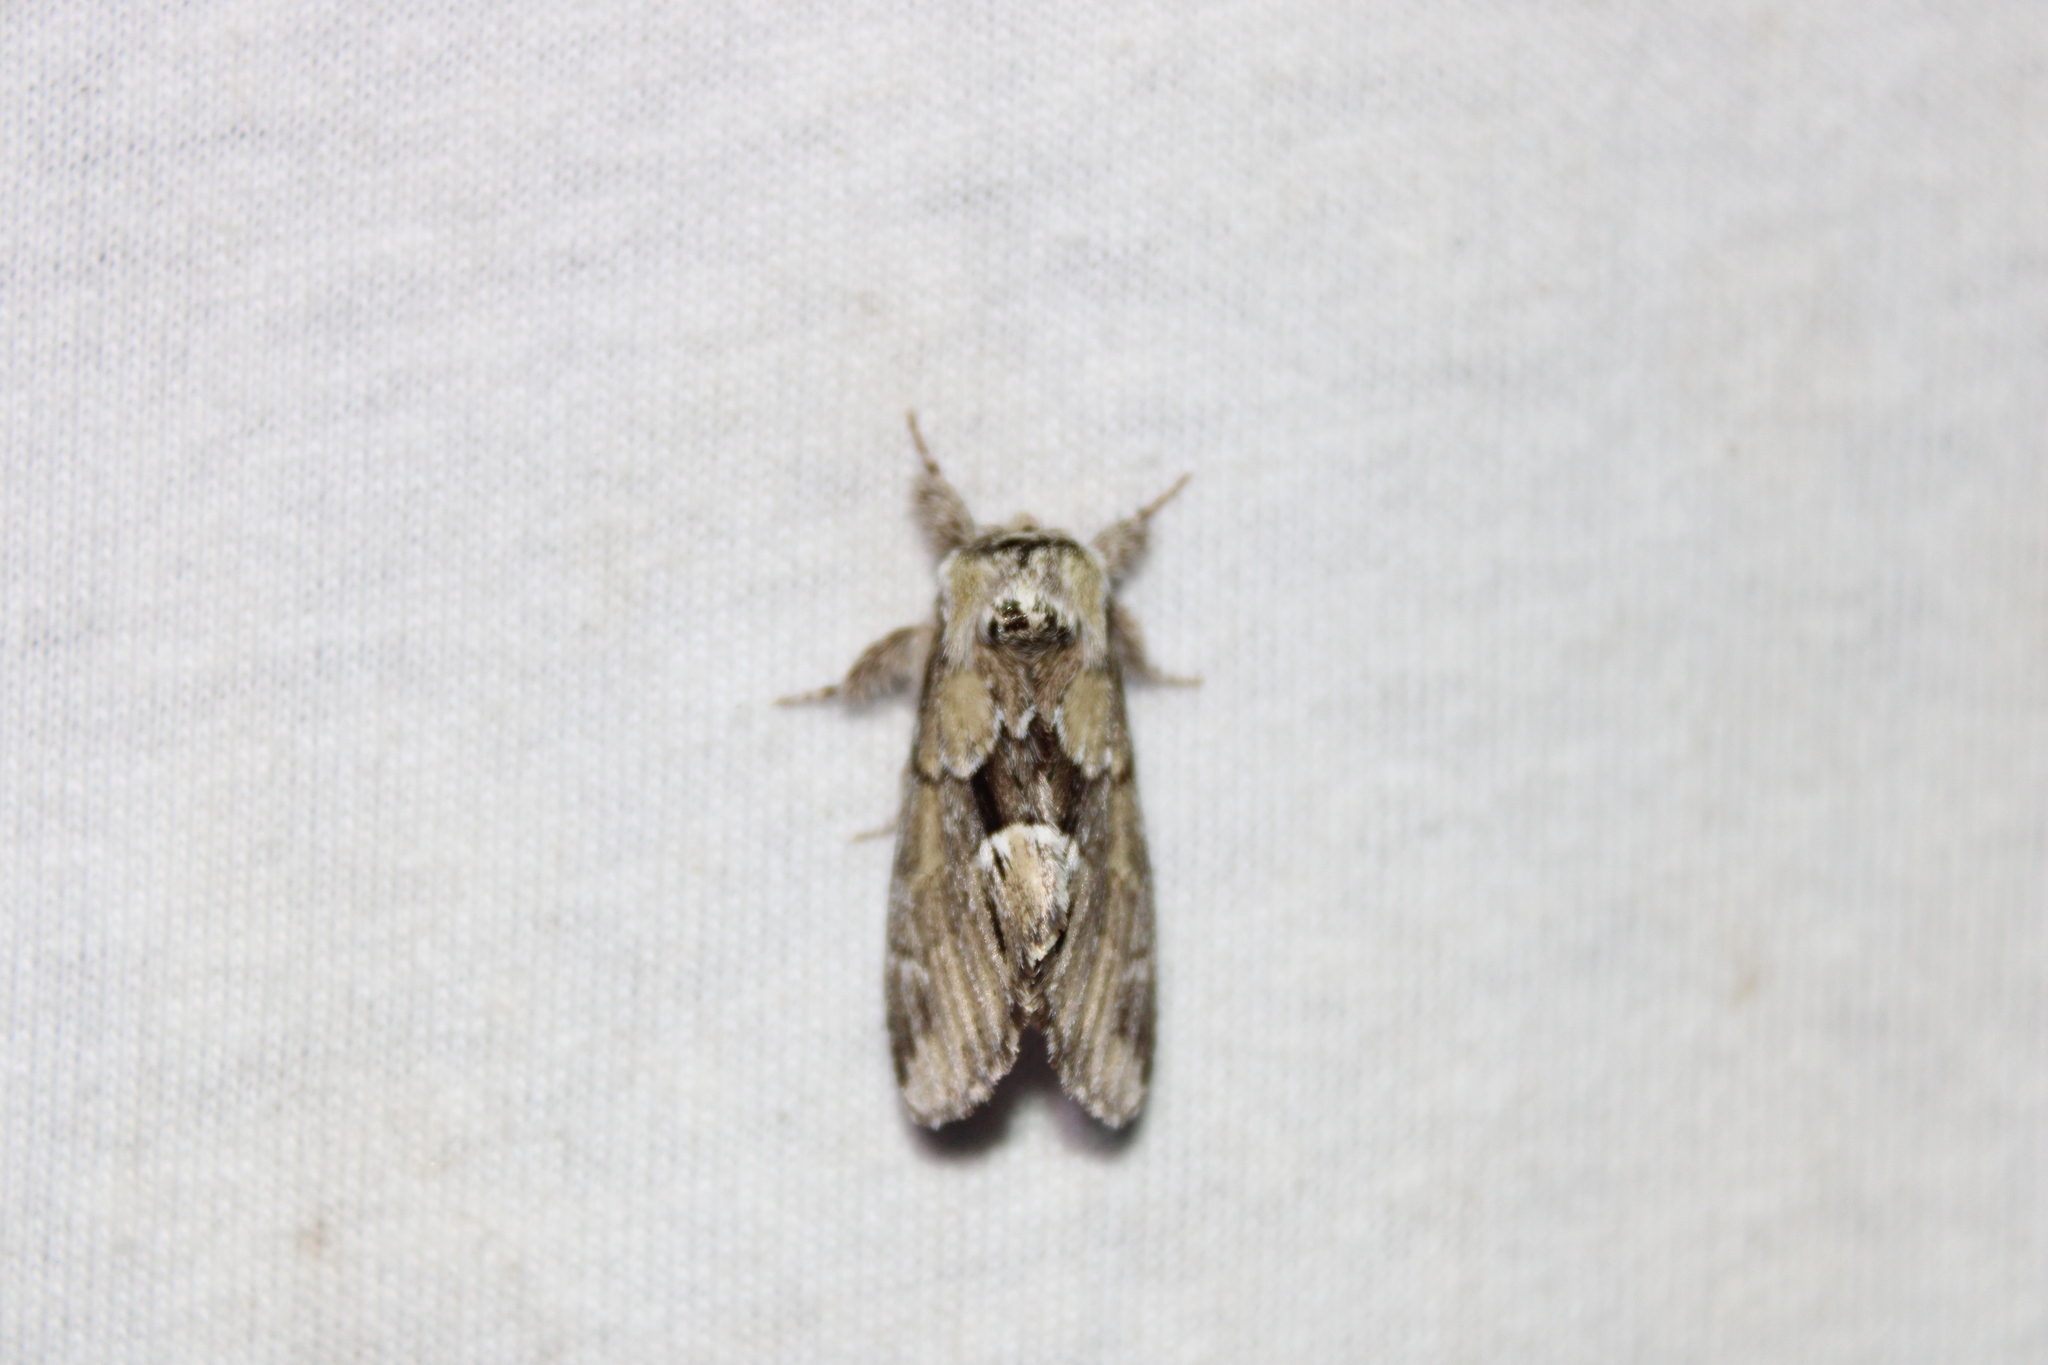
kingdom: Animalia
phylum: Arthropoda
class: Insecta
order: Lepidoptera
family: Notodontidae
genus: Paraeschra
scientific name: Paraeschra georgica
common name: Georgian prominent
